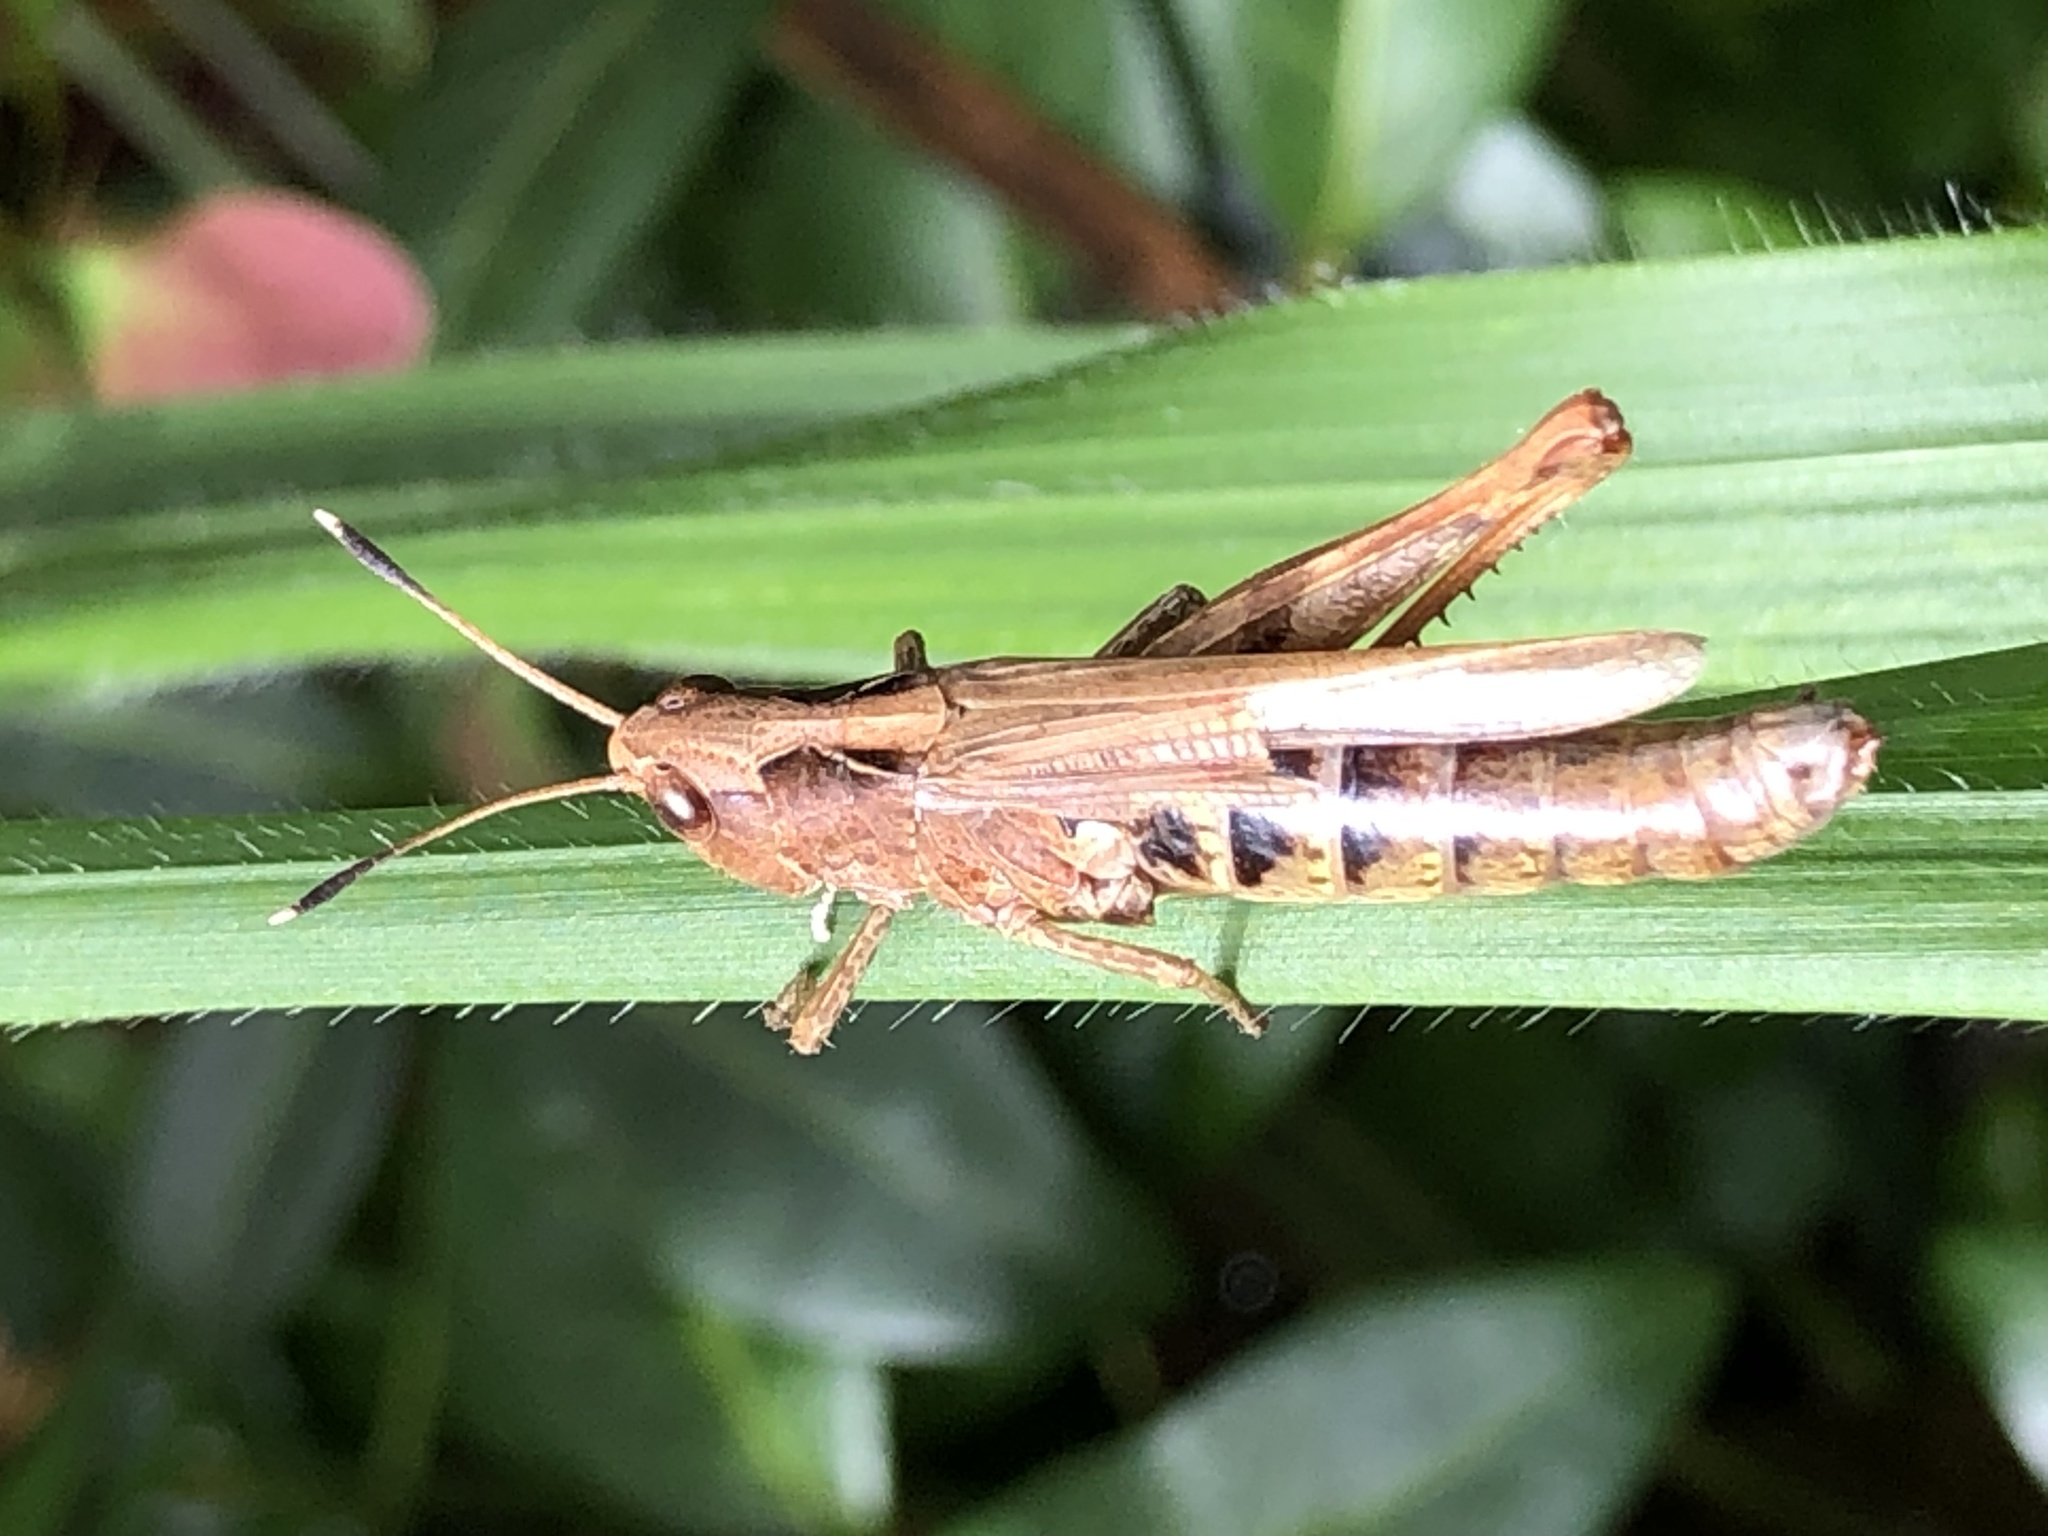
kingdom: Animalia
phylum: Arthropoda
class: Insecta
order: Orthoptera
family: Acrididae
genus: Gomphocerippus
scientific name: Gomphocerippus rufus
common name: Rufous grasshopper
